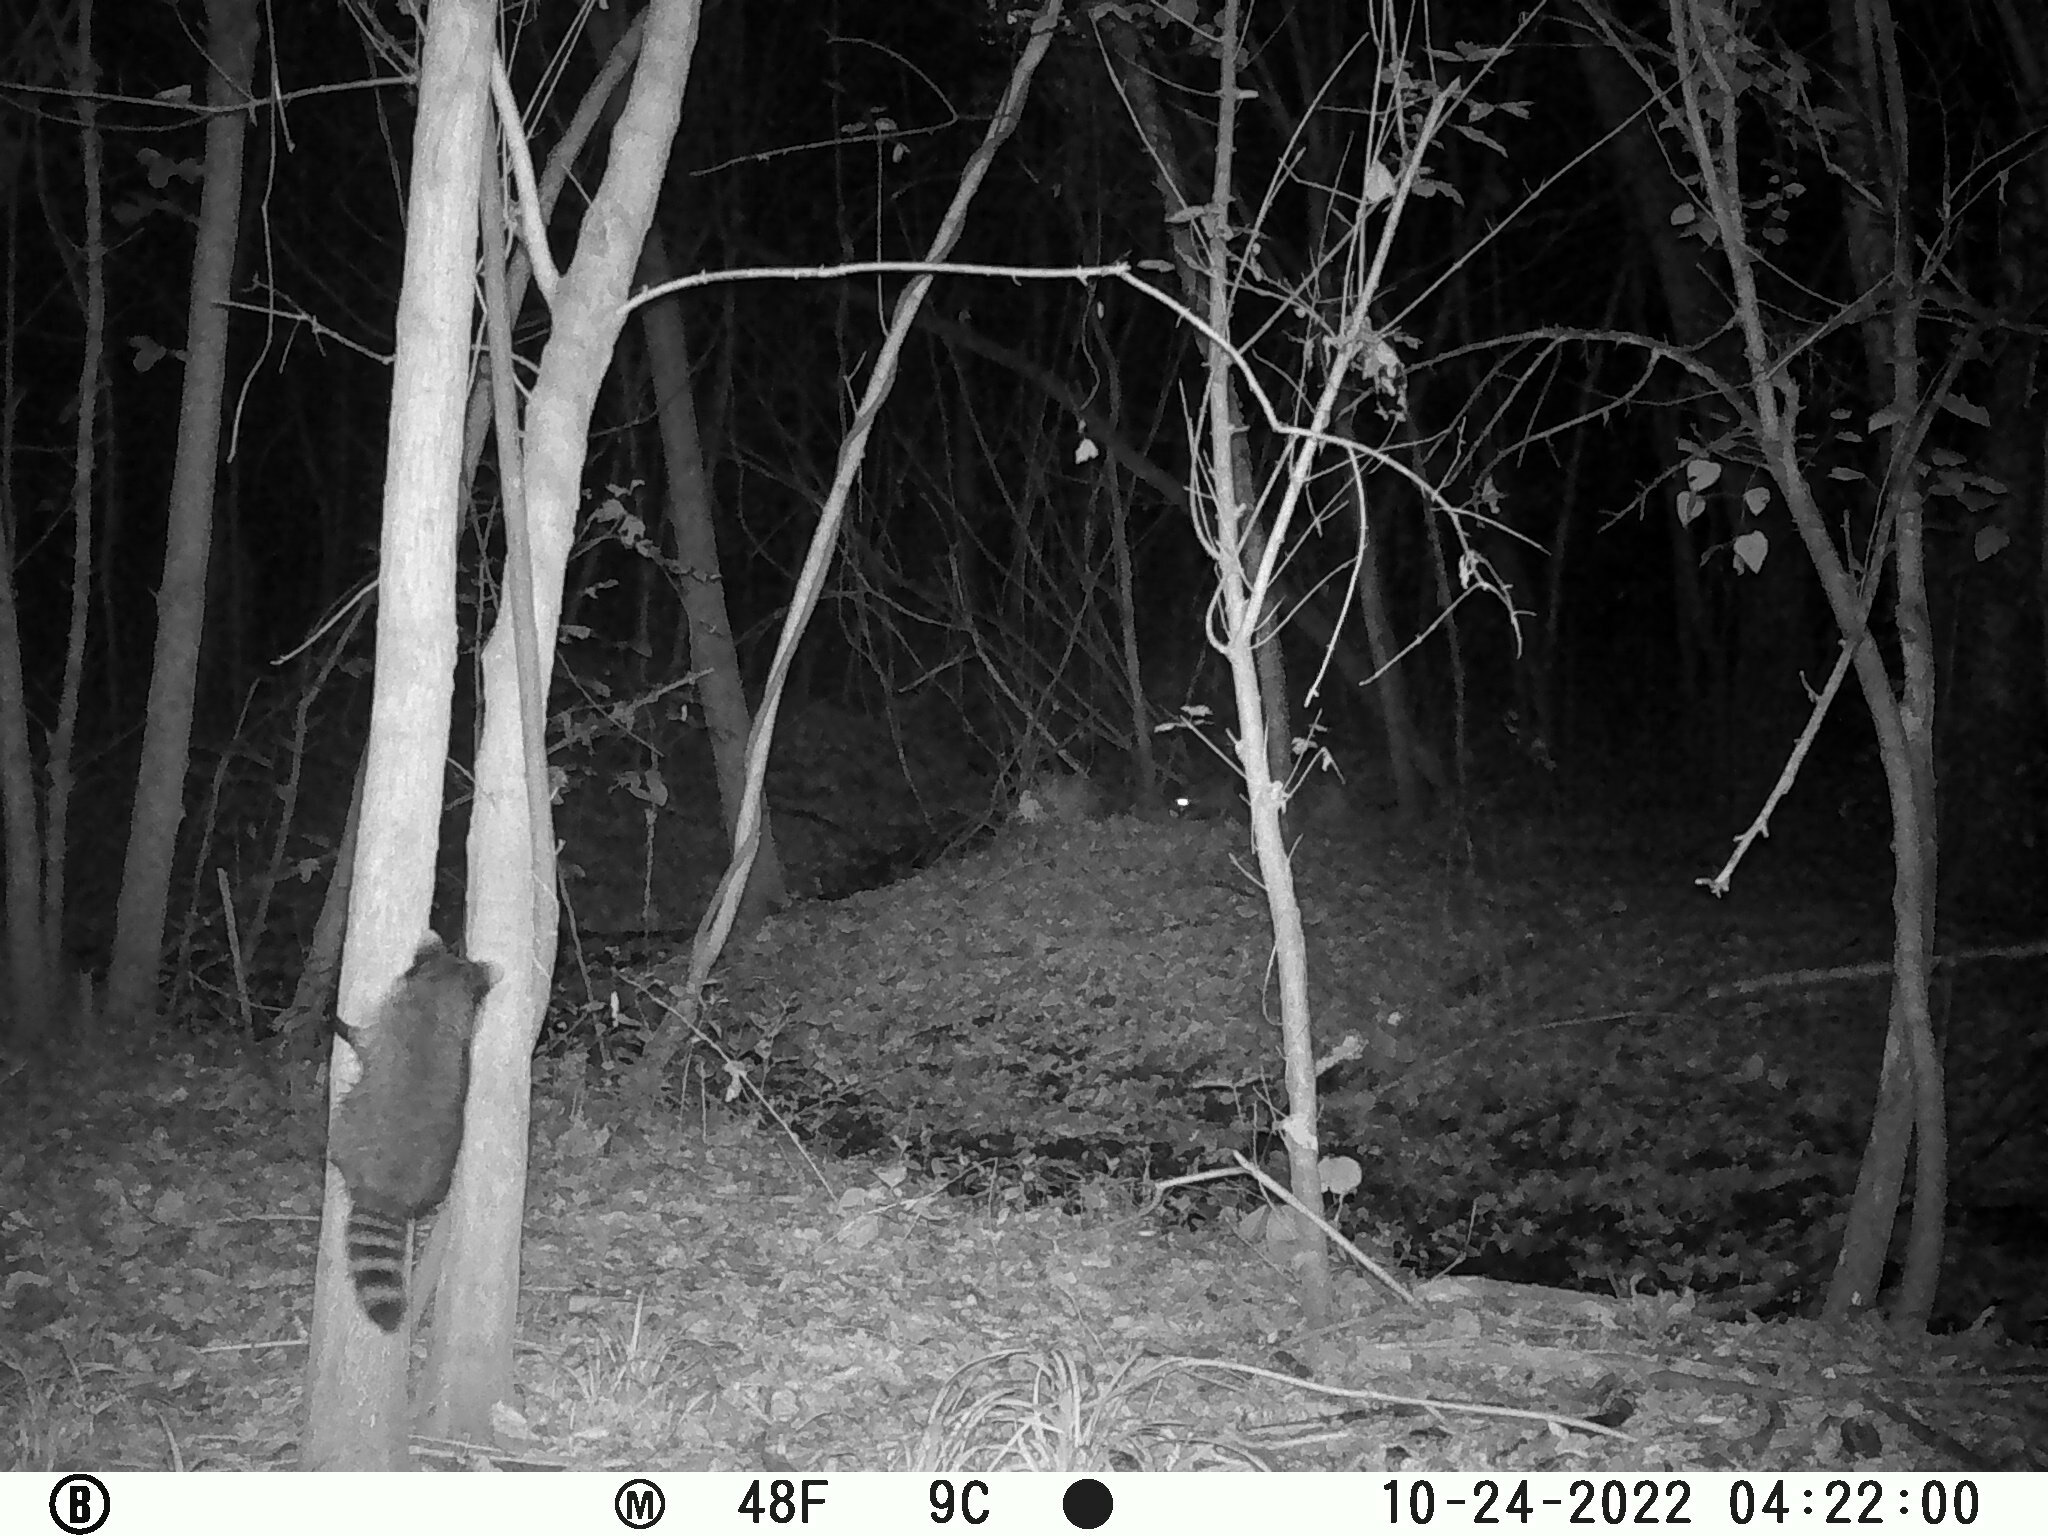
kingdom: Animalia
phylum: Chordata
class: Mammalia
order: Carnivora
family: Procyonidae
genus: Procyon
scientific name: Procyon lotor
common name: Raccoon
